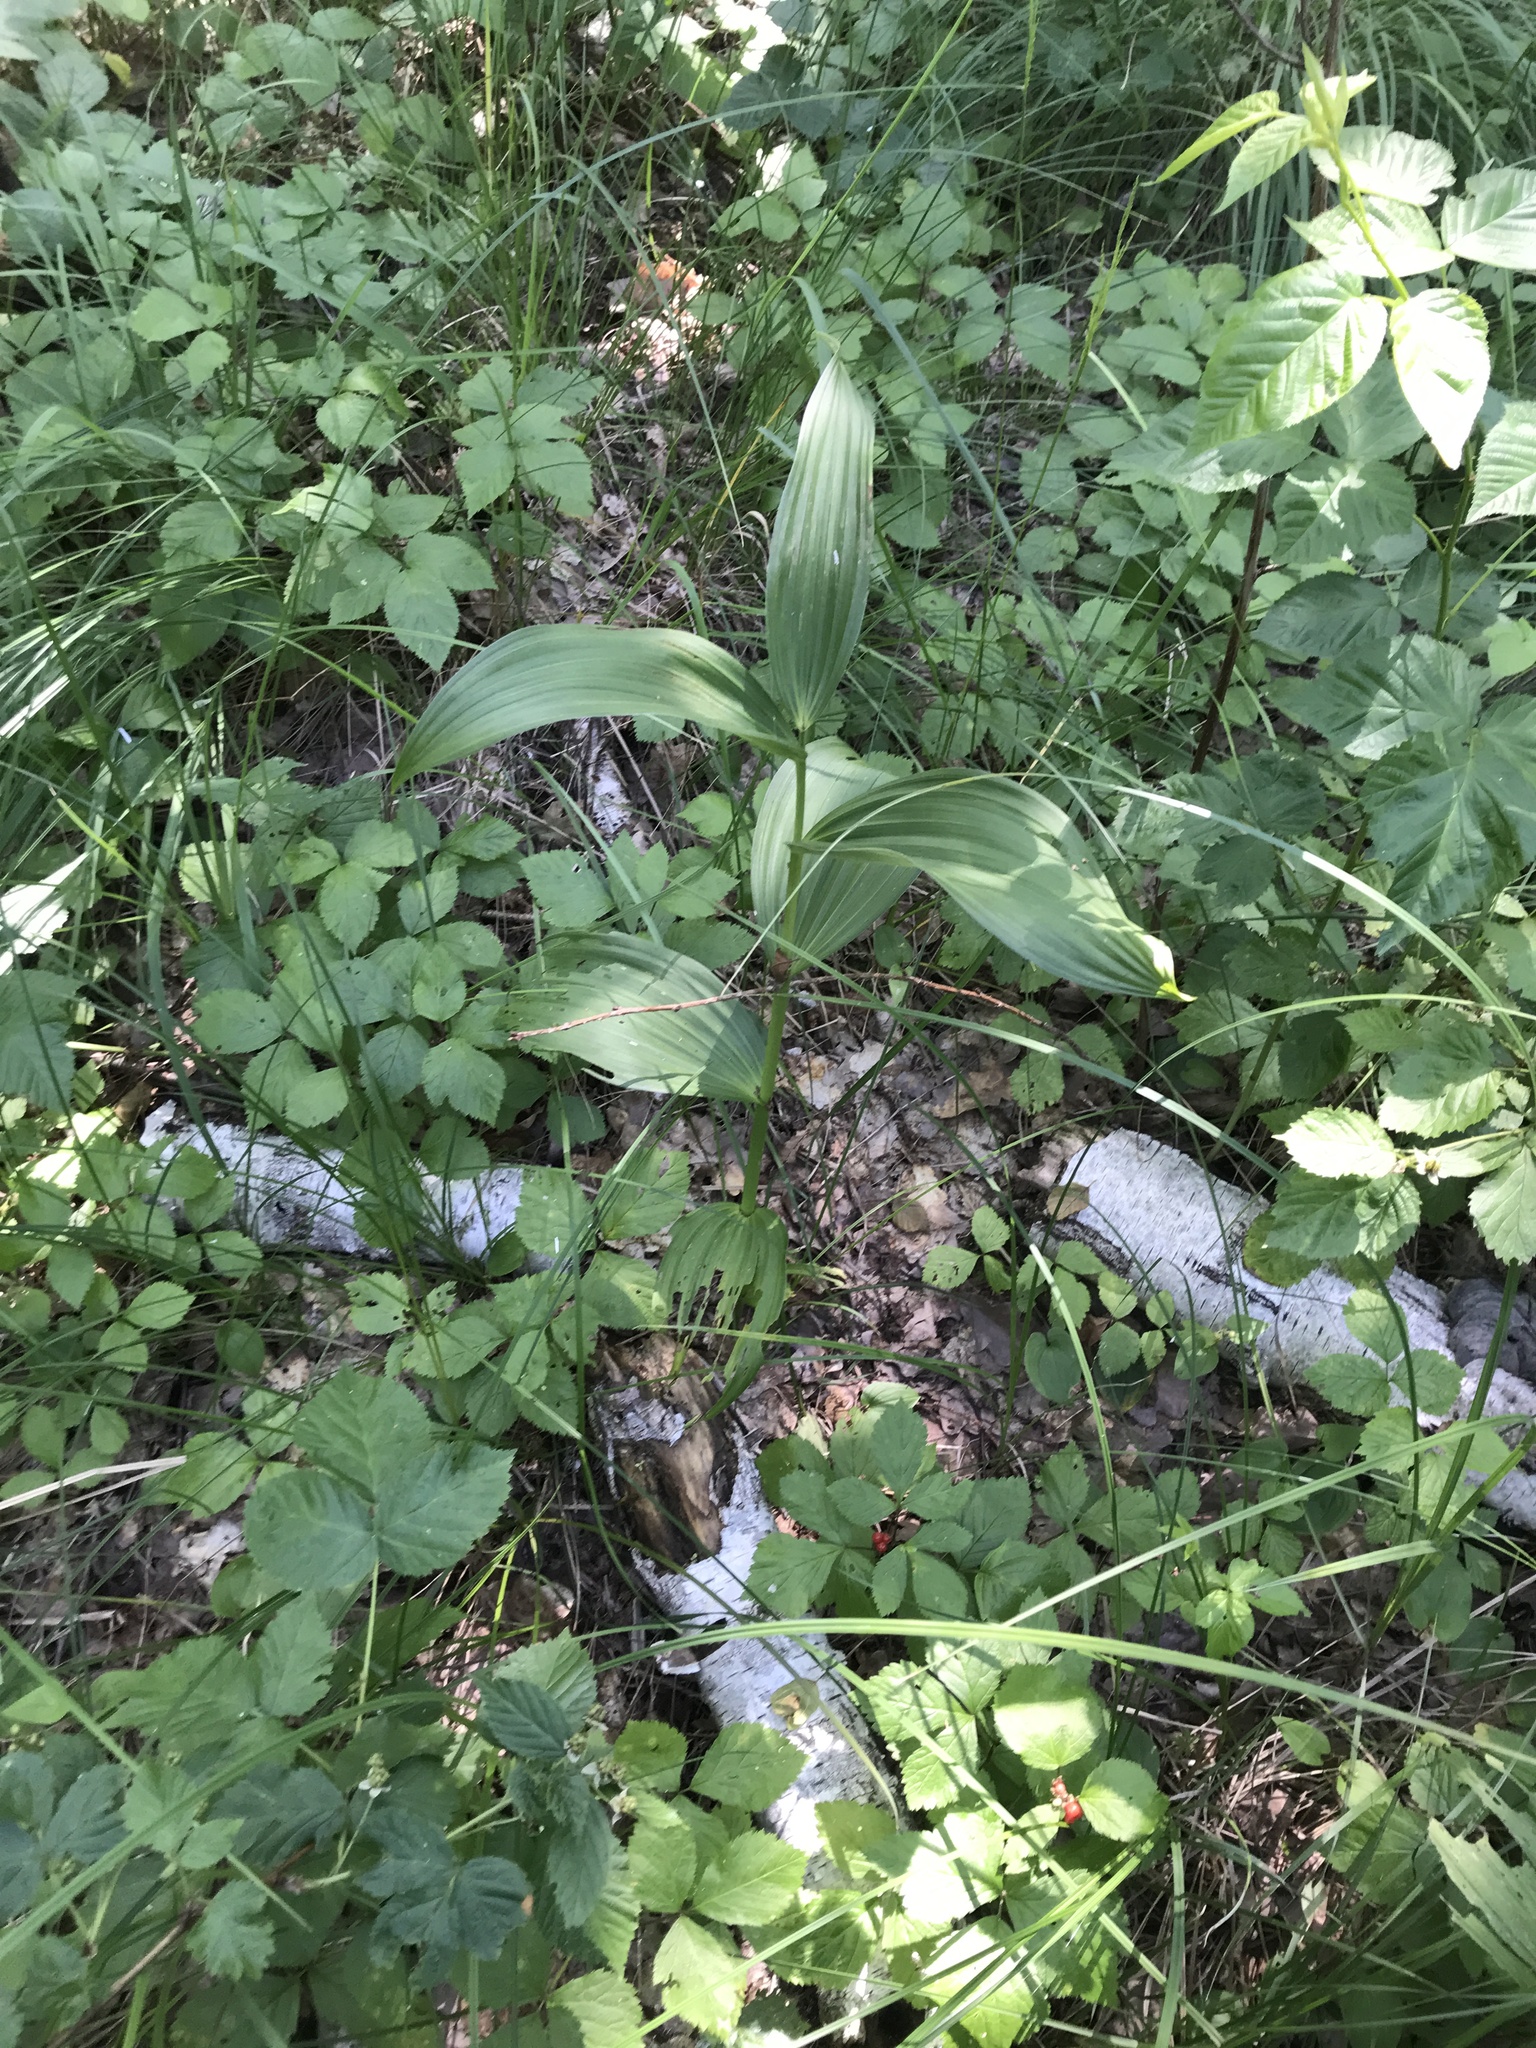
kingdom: Plantae
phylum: Tracheophyta
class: Liliopsida
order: Liliales
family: Melanthiaceae
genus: Veratrum
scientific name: Veratrum lobelianum
